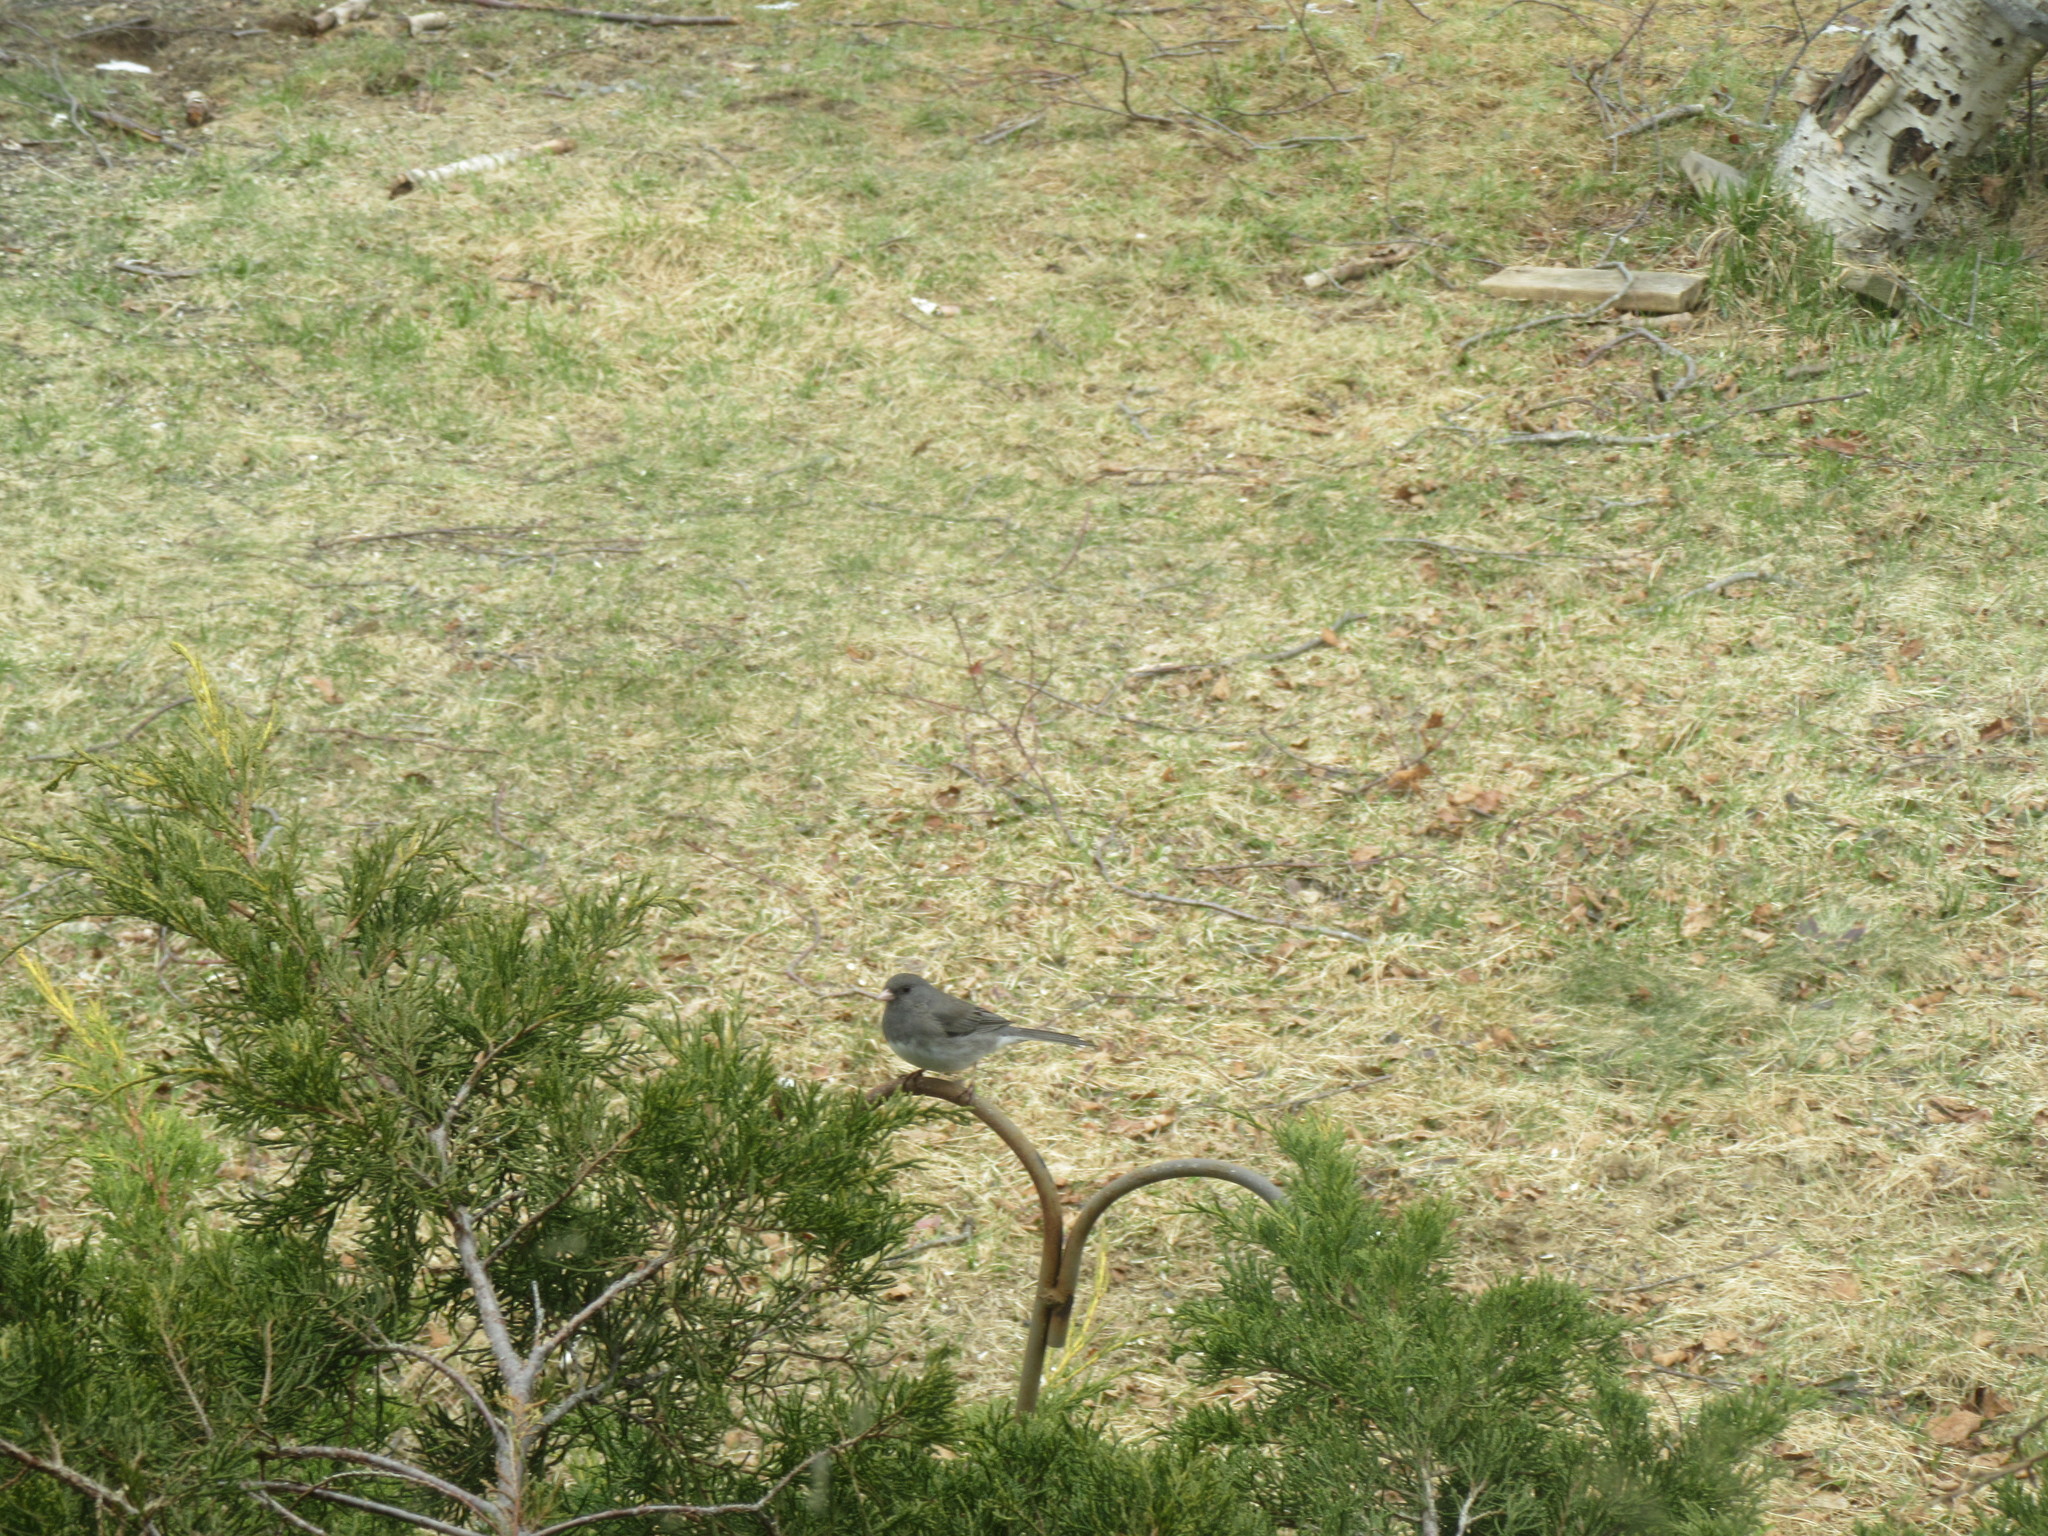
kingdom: Animalia
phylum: Chordata
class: Aves
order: Passeriformes
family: Passerellidae
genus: Junco
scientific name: Junco hyemalis
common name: Dark-eyed junco
